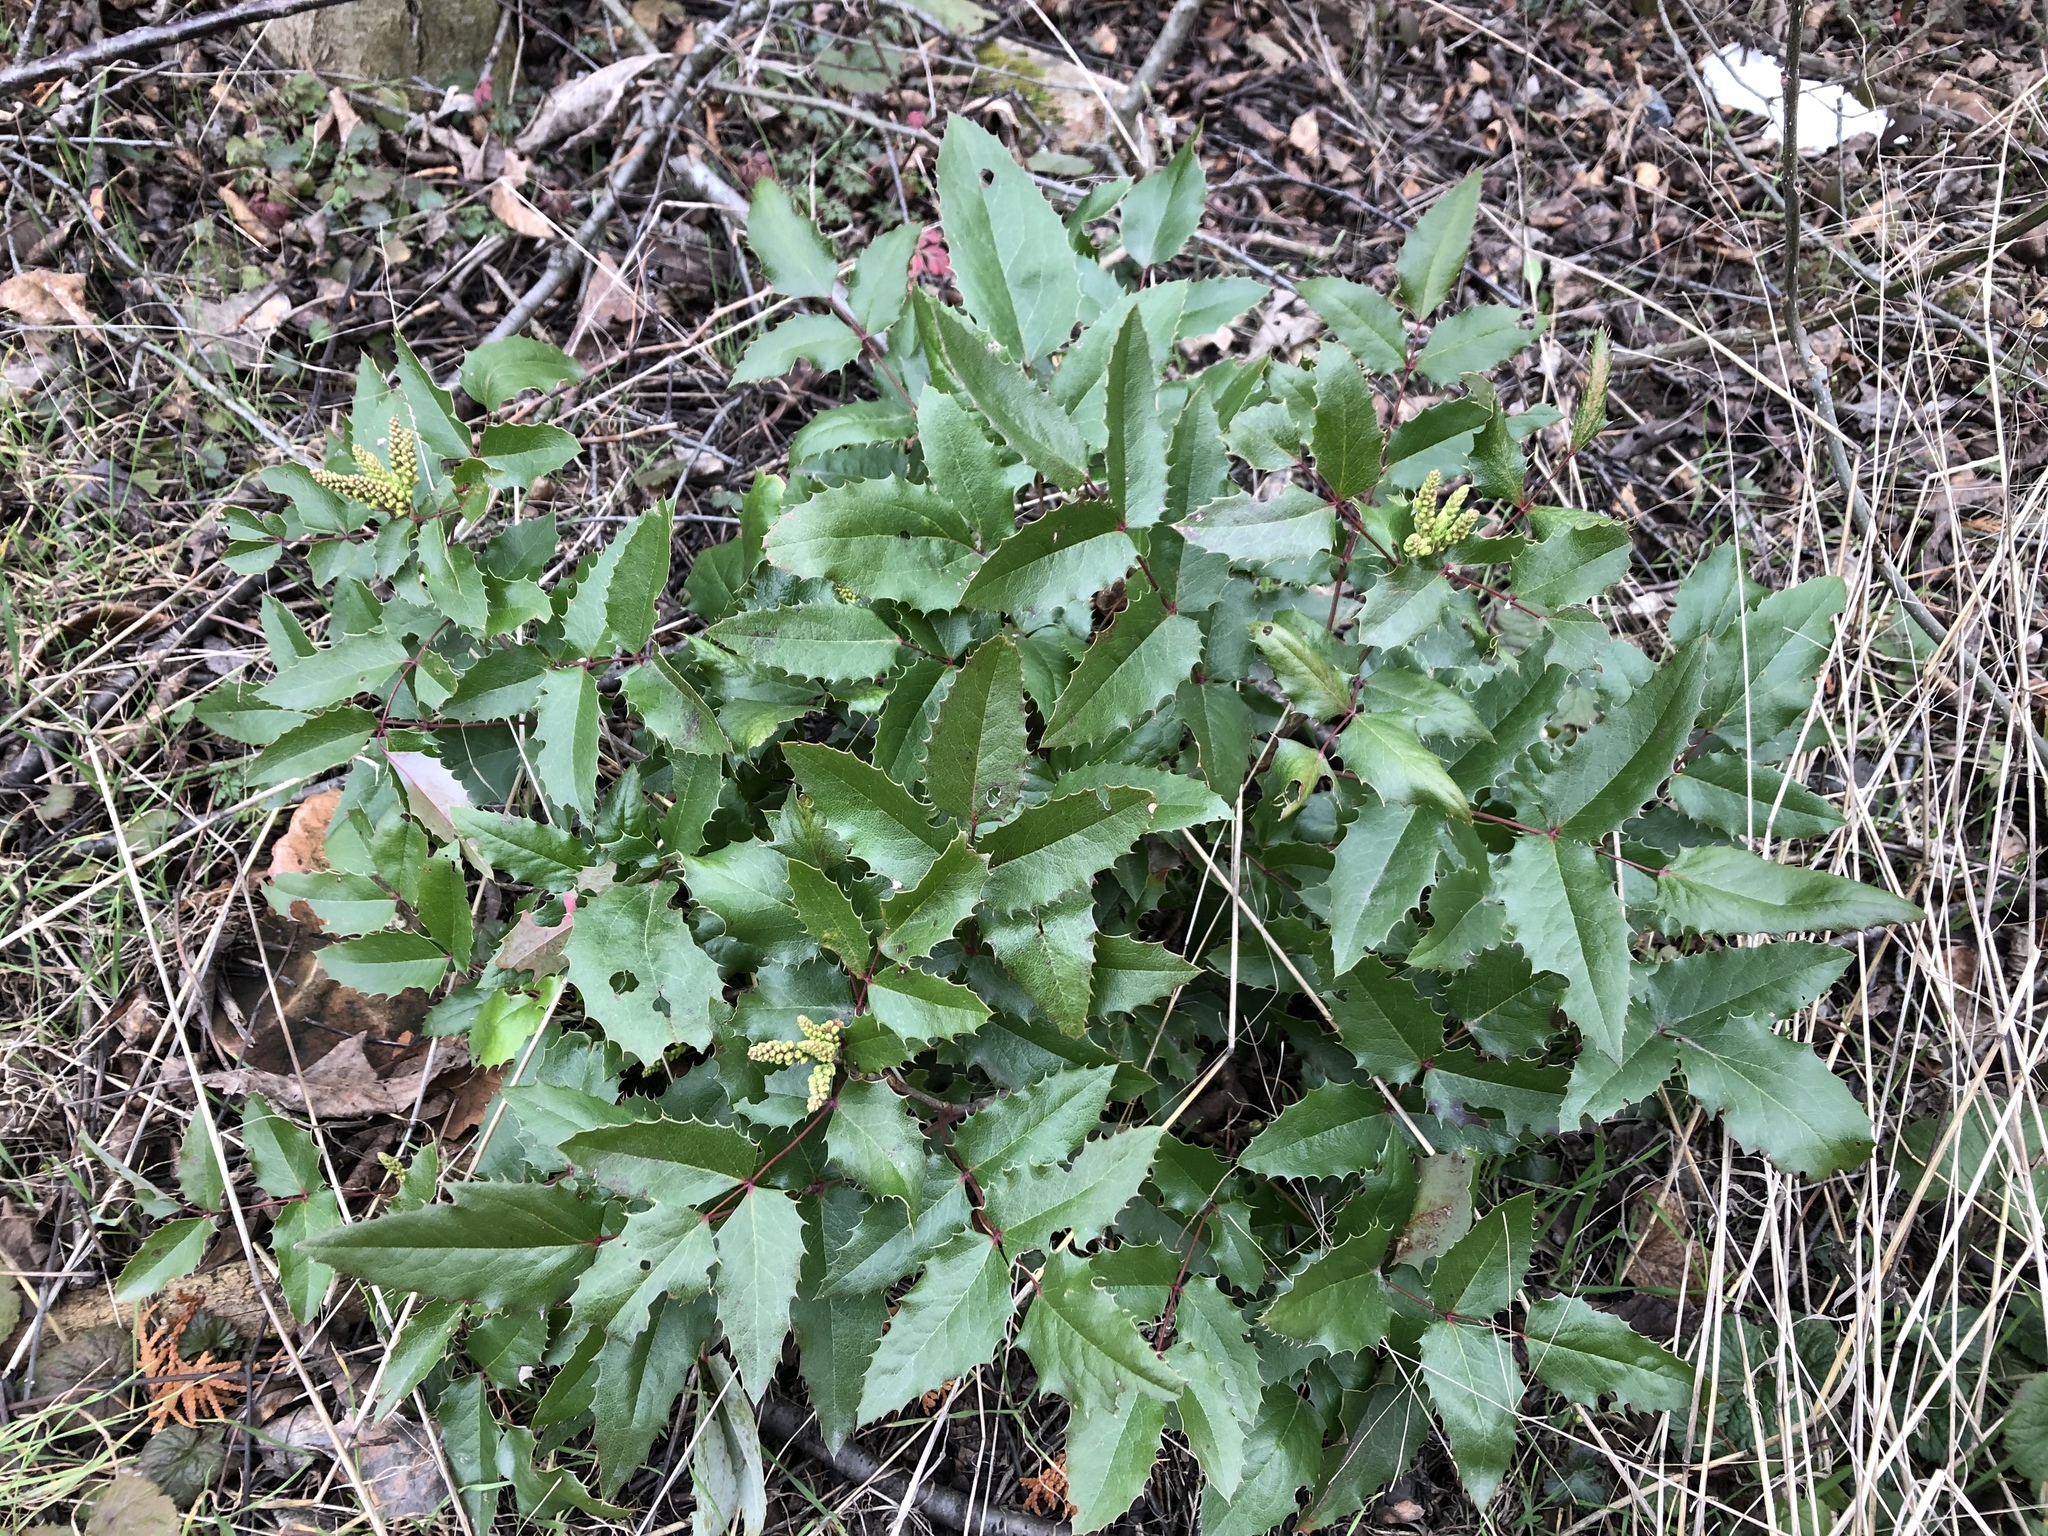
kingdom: Plantae
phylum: Tracheophyta
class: Magnoliopsida
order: Ranunculales
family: Berberidaceae
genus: Mahonia
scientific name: Mahonia aquifolium
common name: Oregon-grape
